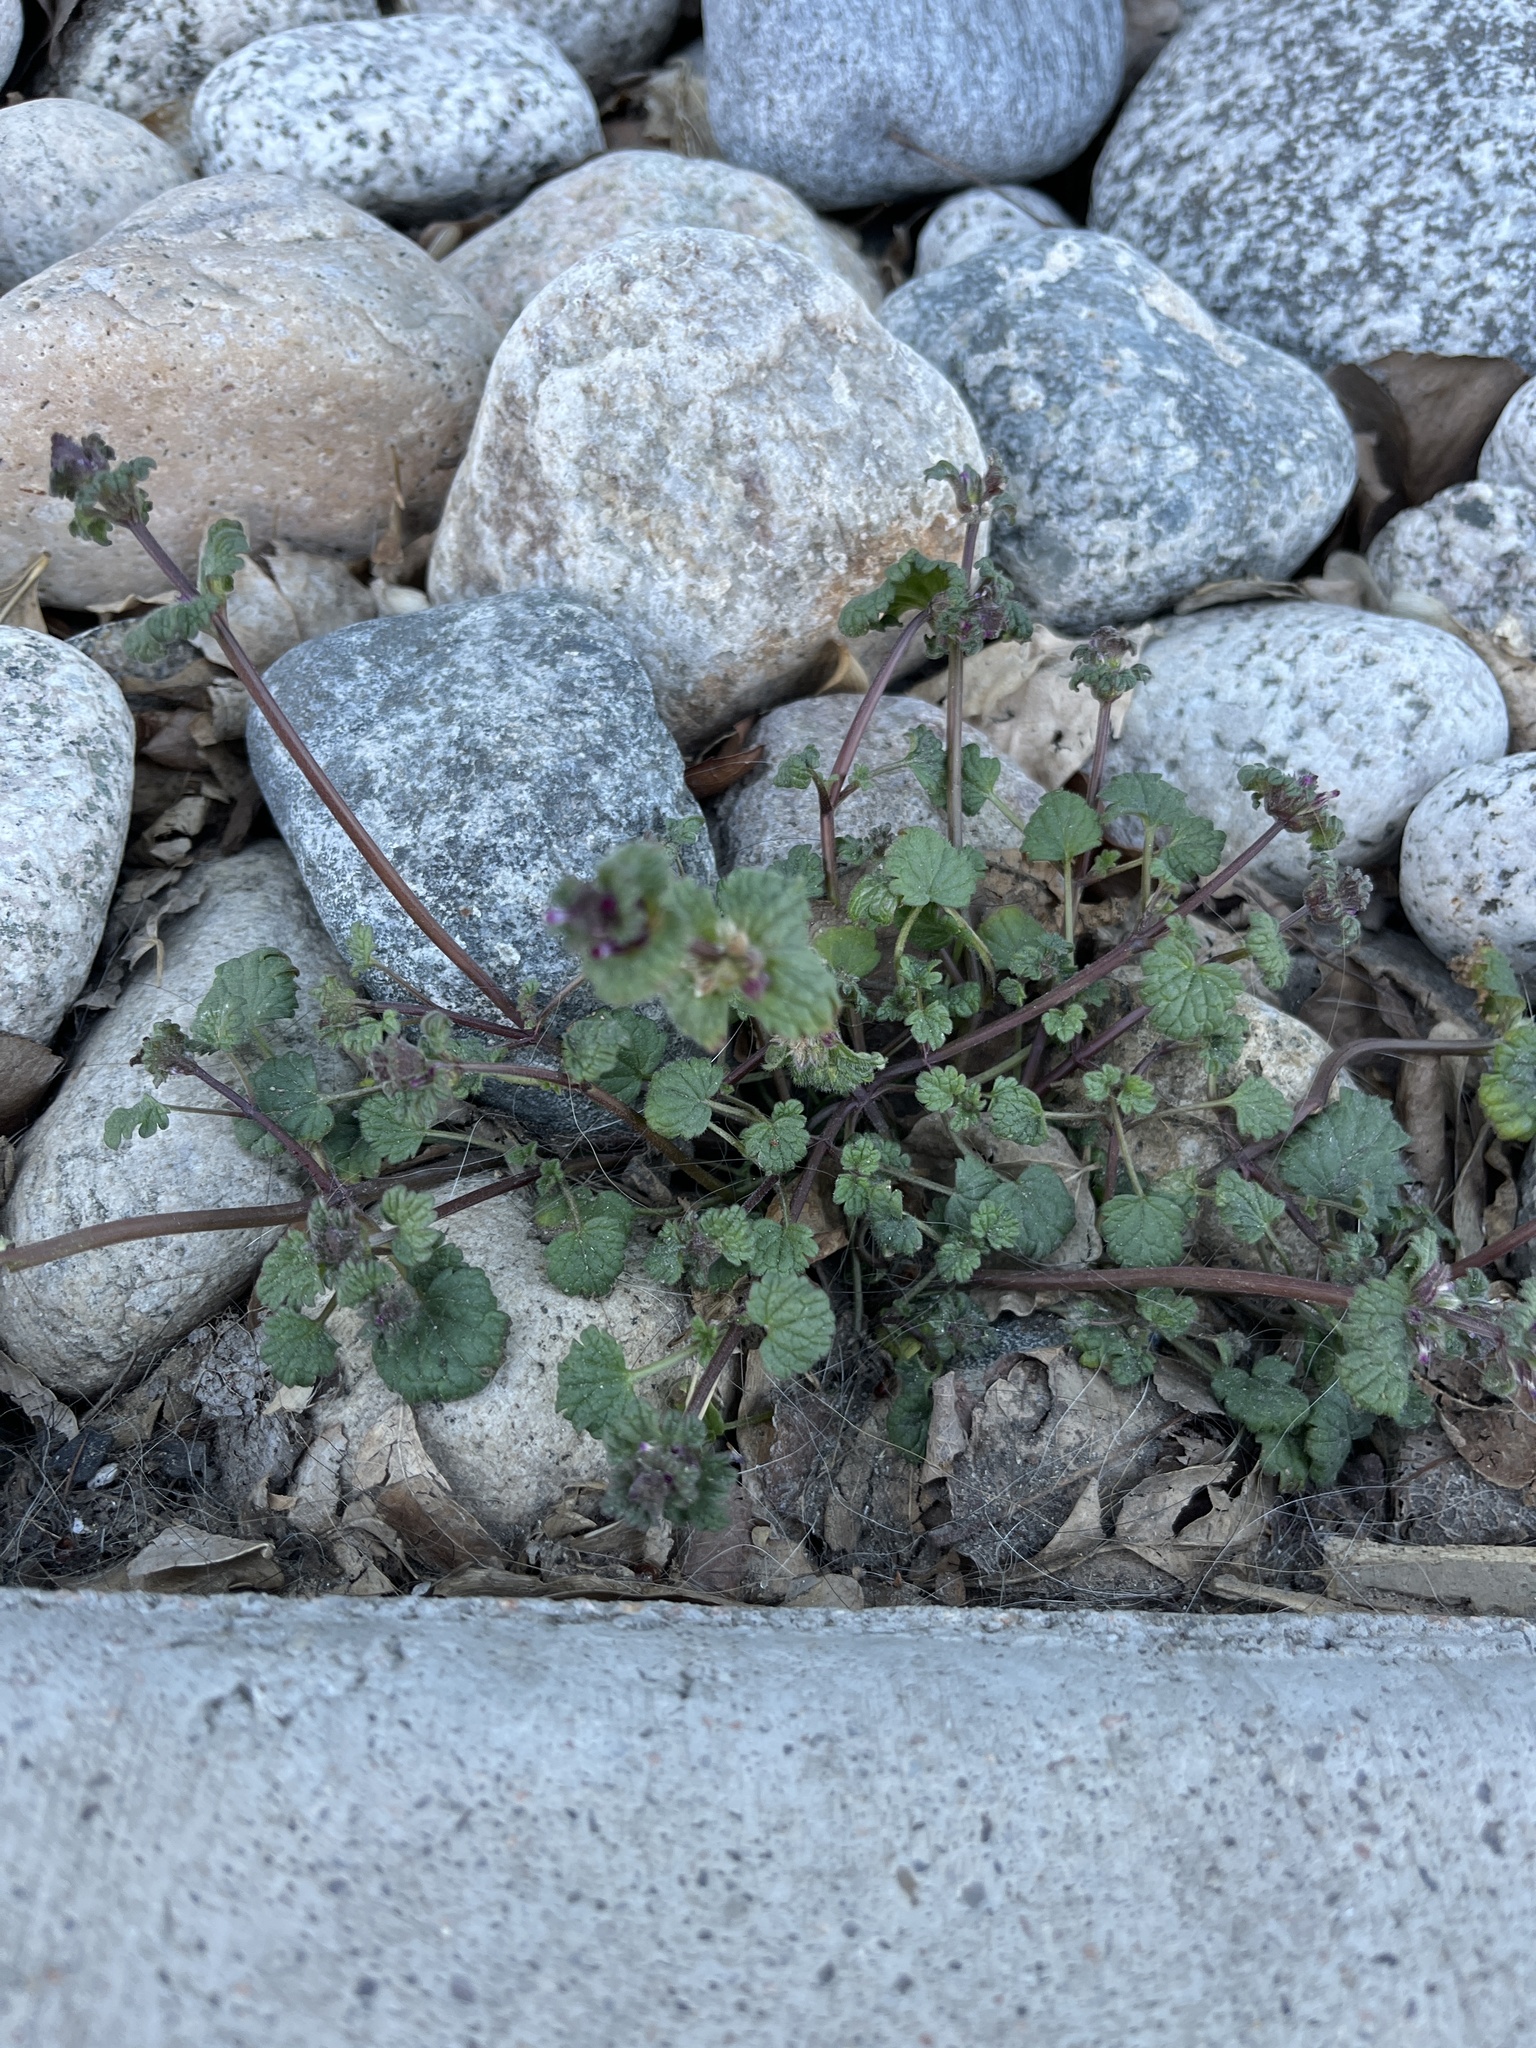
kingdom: Plantae
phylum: Tracheophyta
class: Magnoliopsida
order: Lamiales
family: Lamiaceae
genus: Lamium
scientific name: Lamium amplexicaule
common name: Henbit dead-nettle
